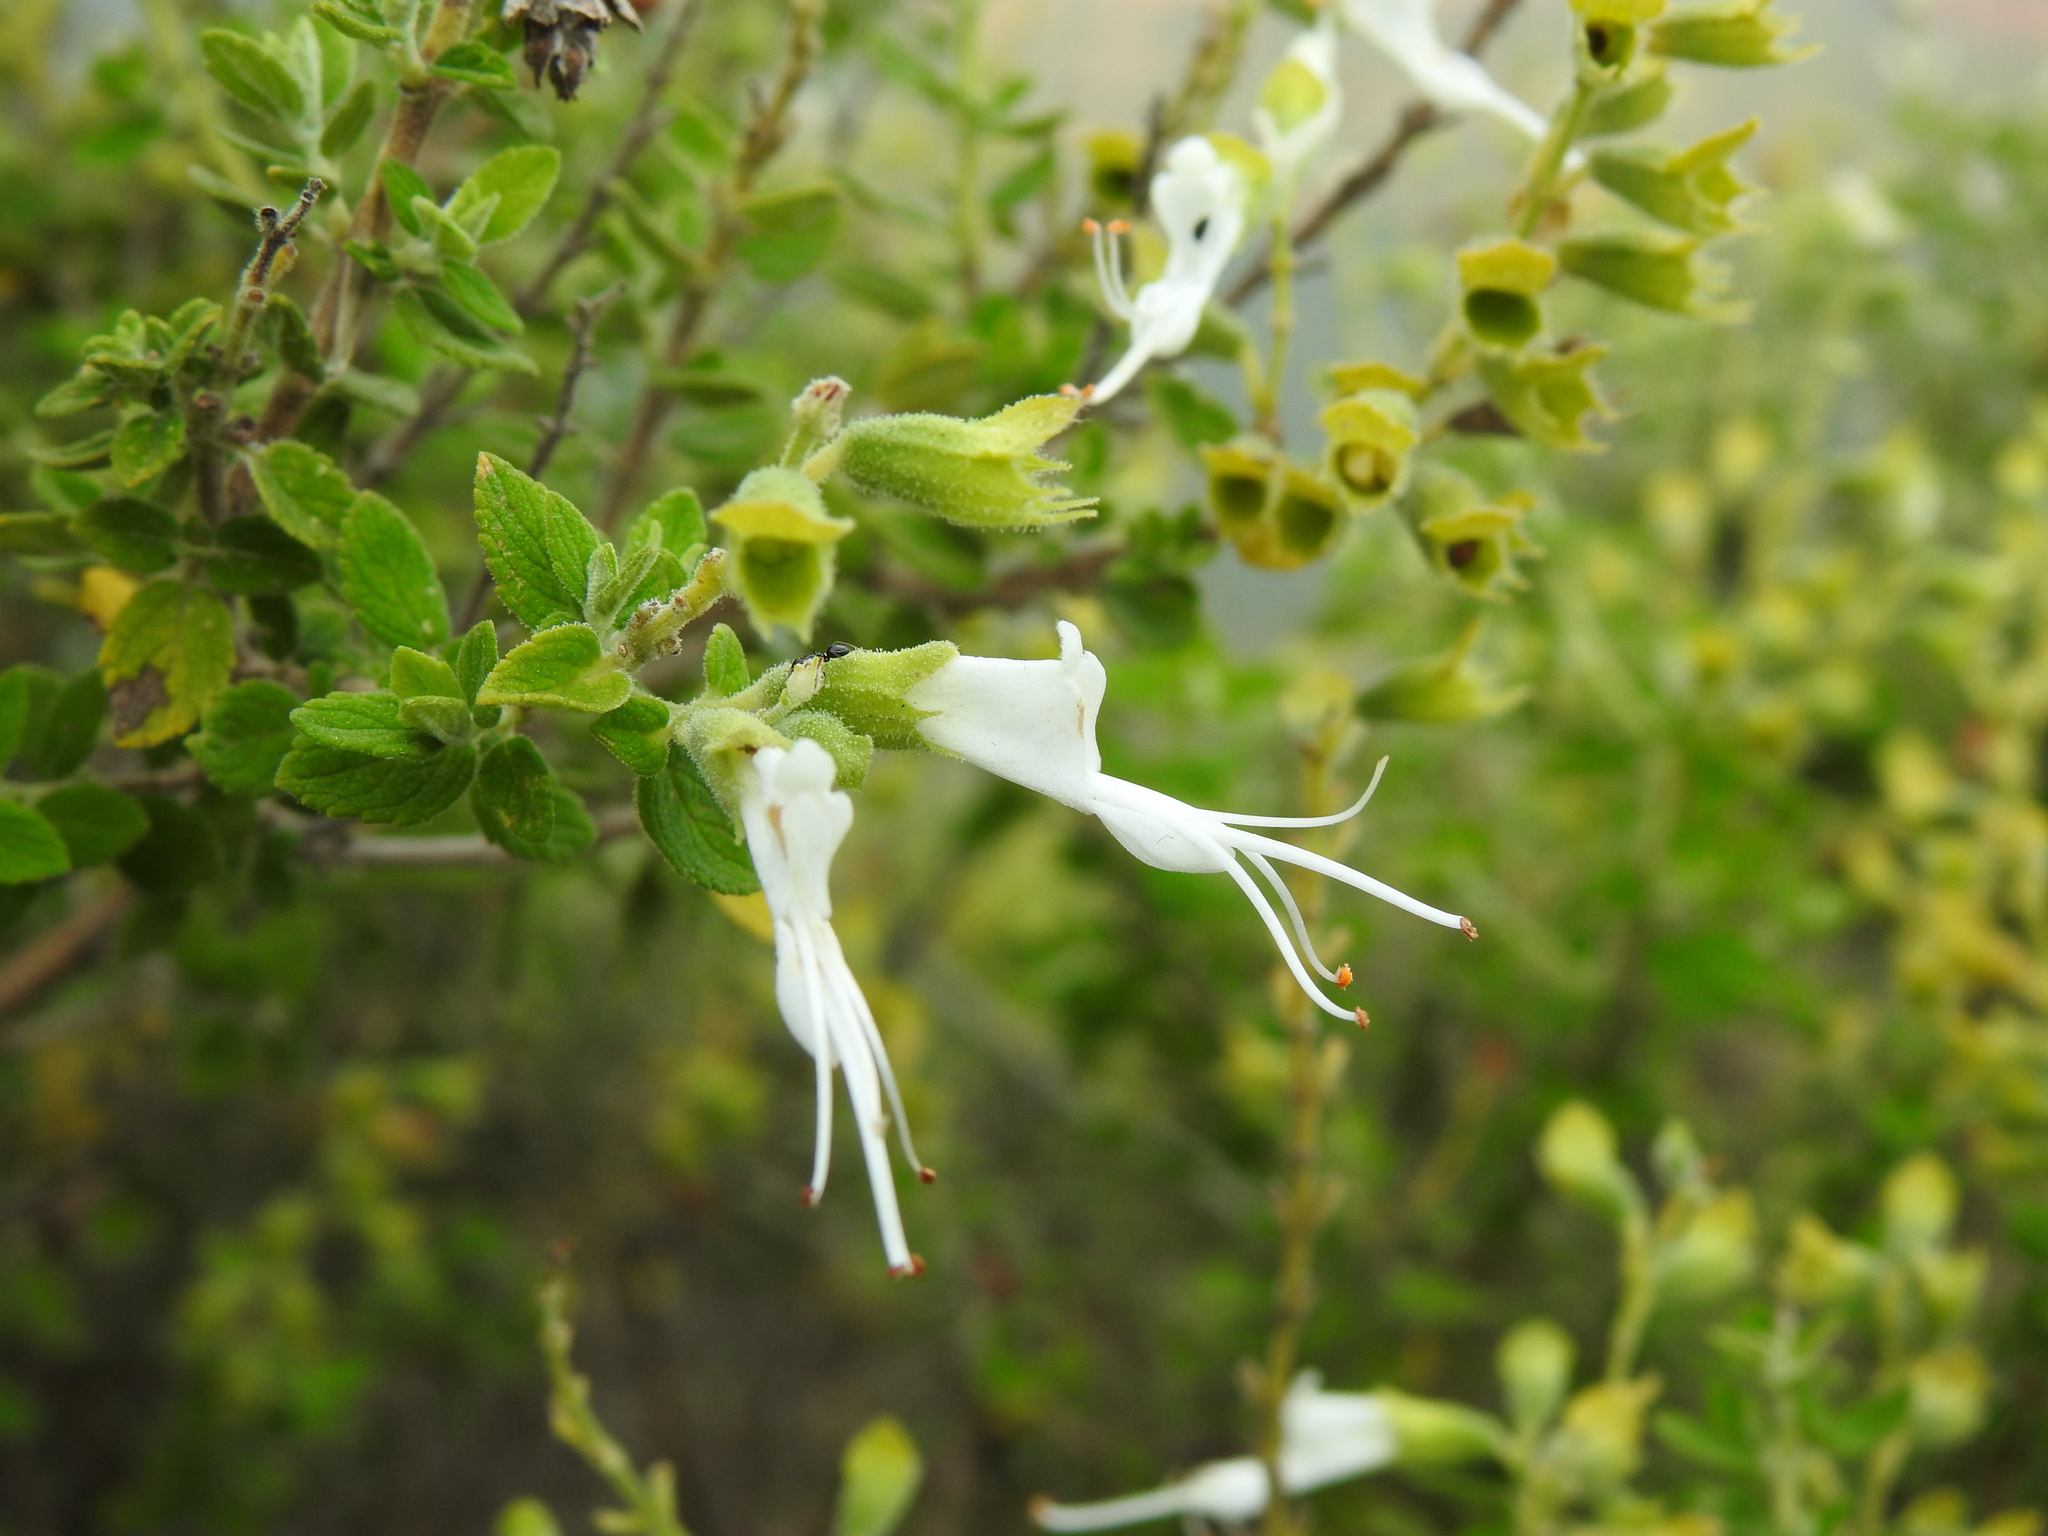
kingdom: Plantae
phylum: Tracheophyta
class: Magnoliopsida
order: Lamiales
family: Lamiaceae
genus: Syncolostemon
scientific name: Syncolostemon parvifolius
